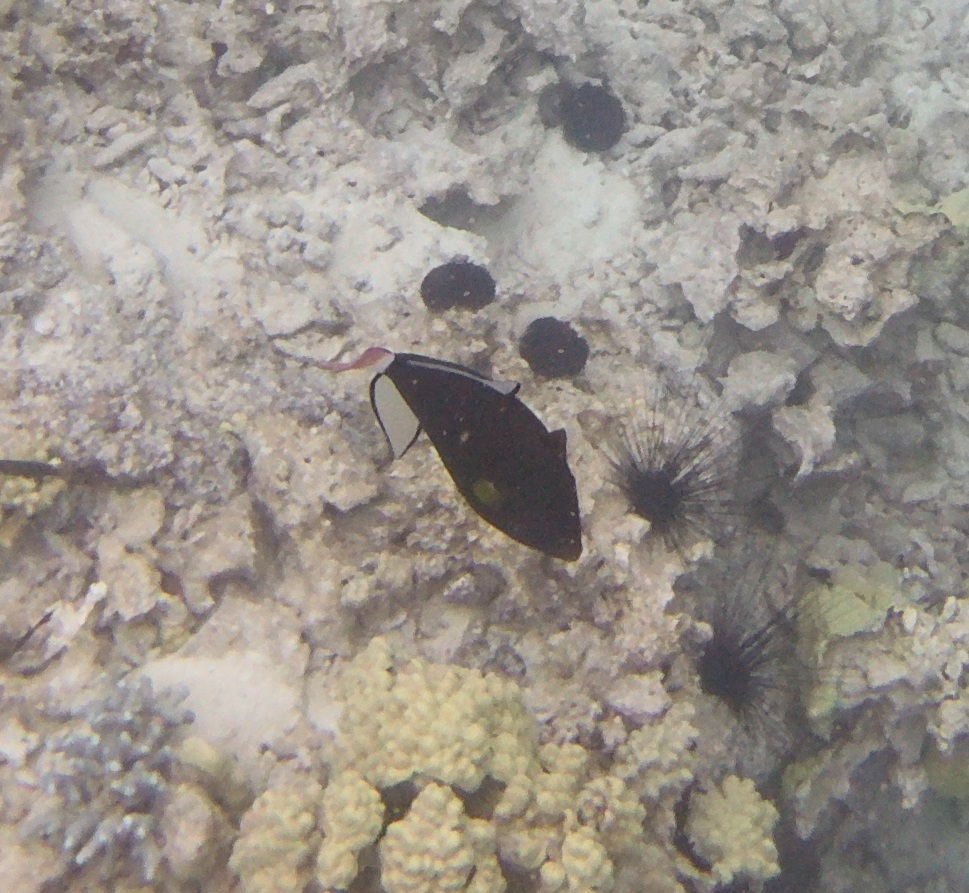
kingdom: Animalia
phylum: Chordata
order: Tetraodontiformes
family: Balistidae
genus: Melichthys
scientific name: Melichthys vidua
